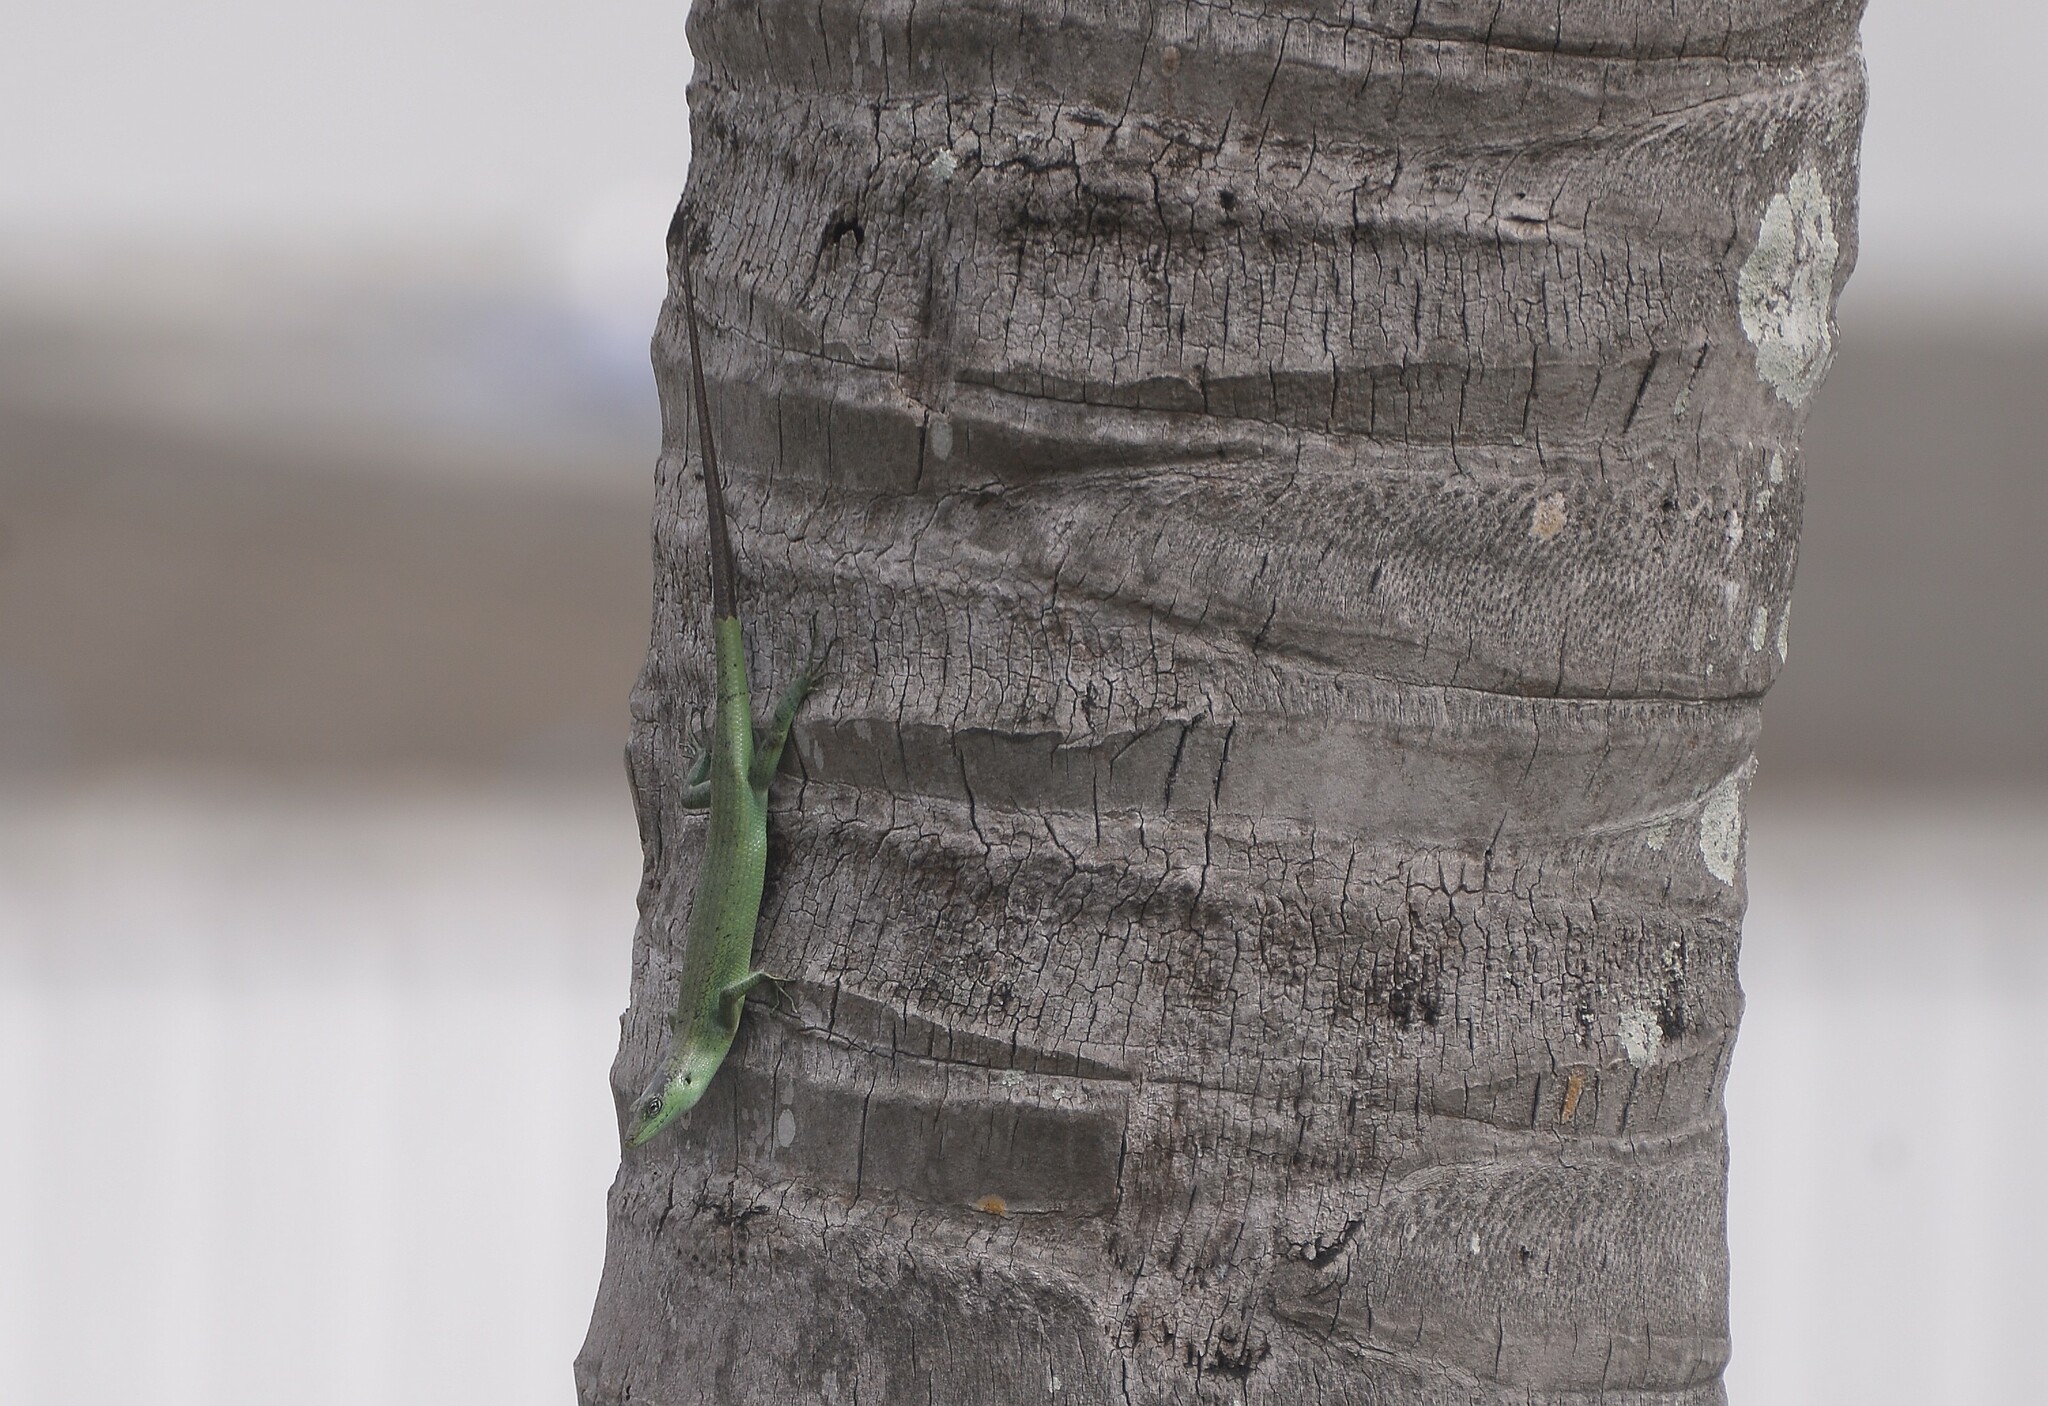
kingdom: Animalia
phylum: Chordata
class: Squamata
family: Scincidae
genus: Emoia
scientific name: Emoia sanfordi
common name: Sanford's tree skink
